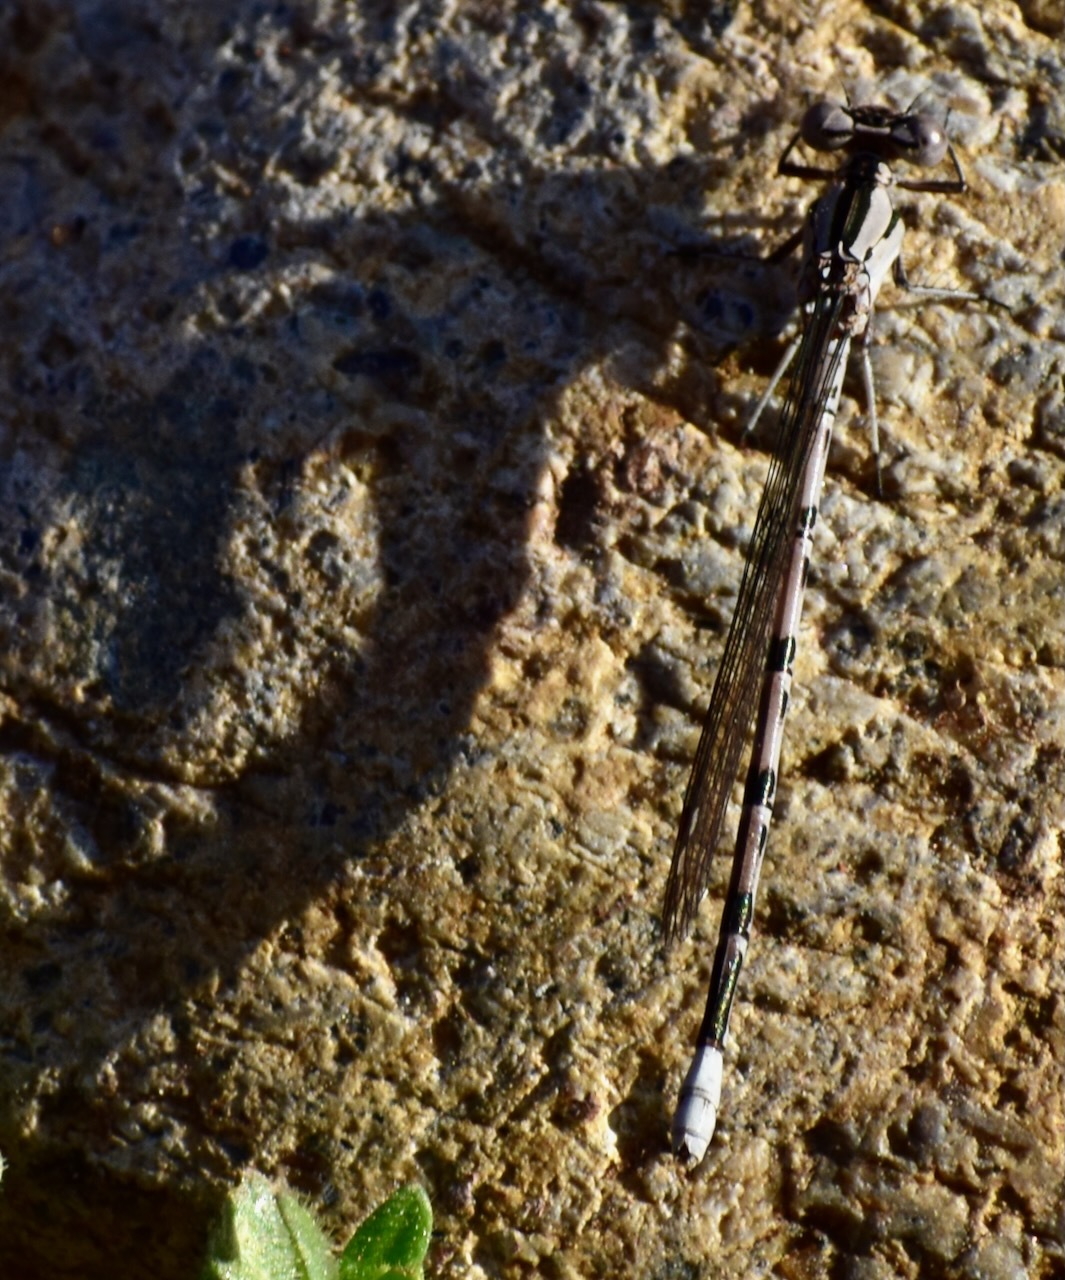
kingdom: Animalia
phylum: Arthropoda
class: Insecta
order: Odonata
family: Coenagrionidae
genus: Argia
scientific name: Argia vivida
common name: Vivid dancer
